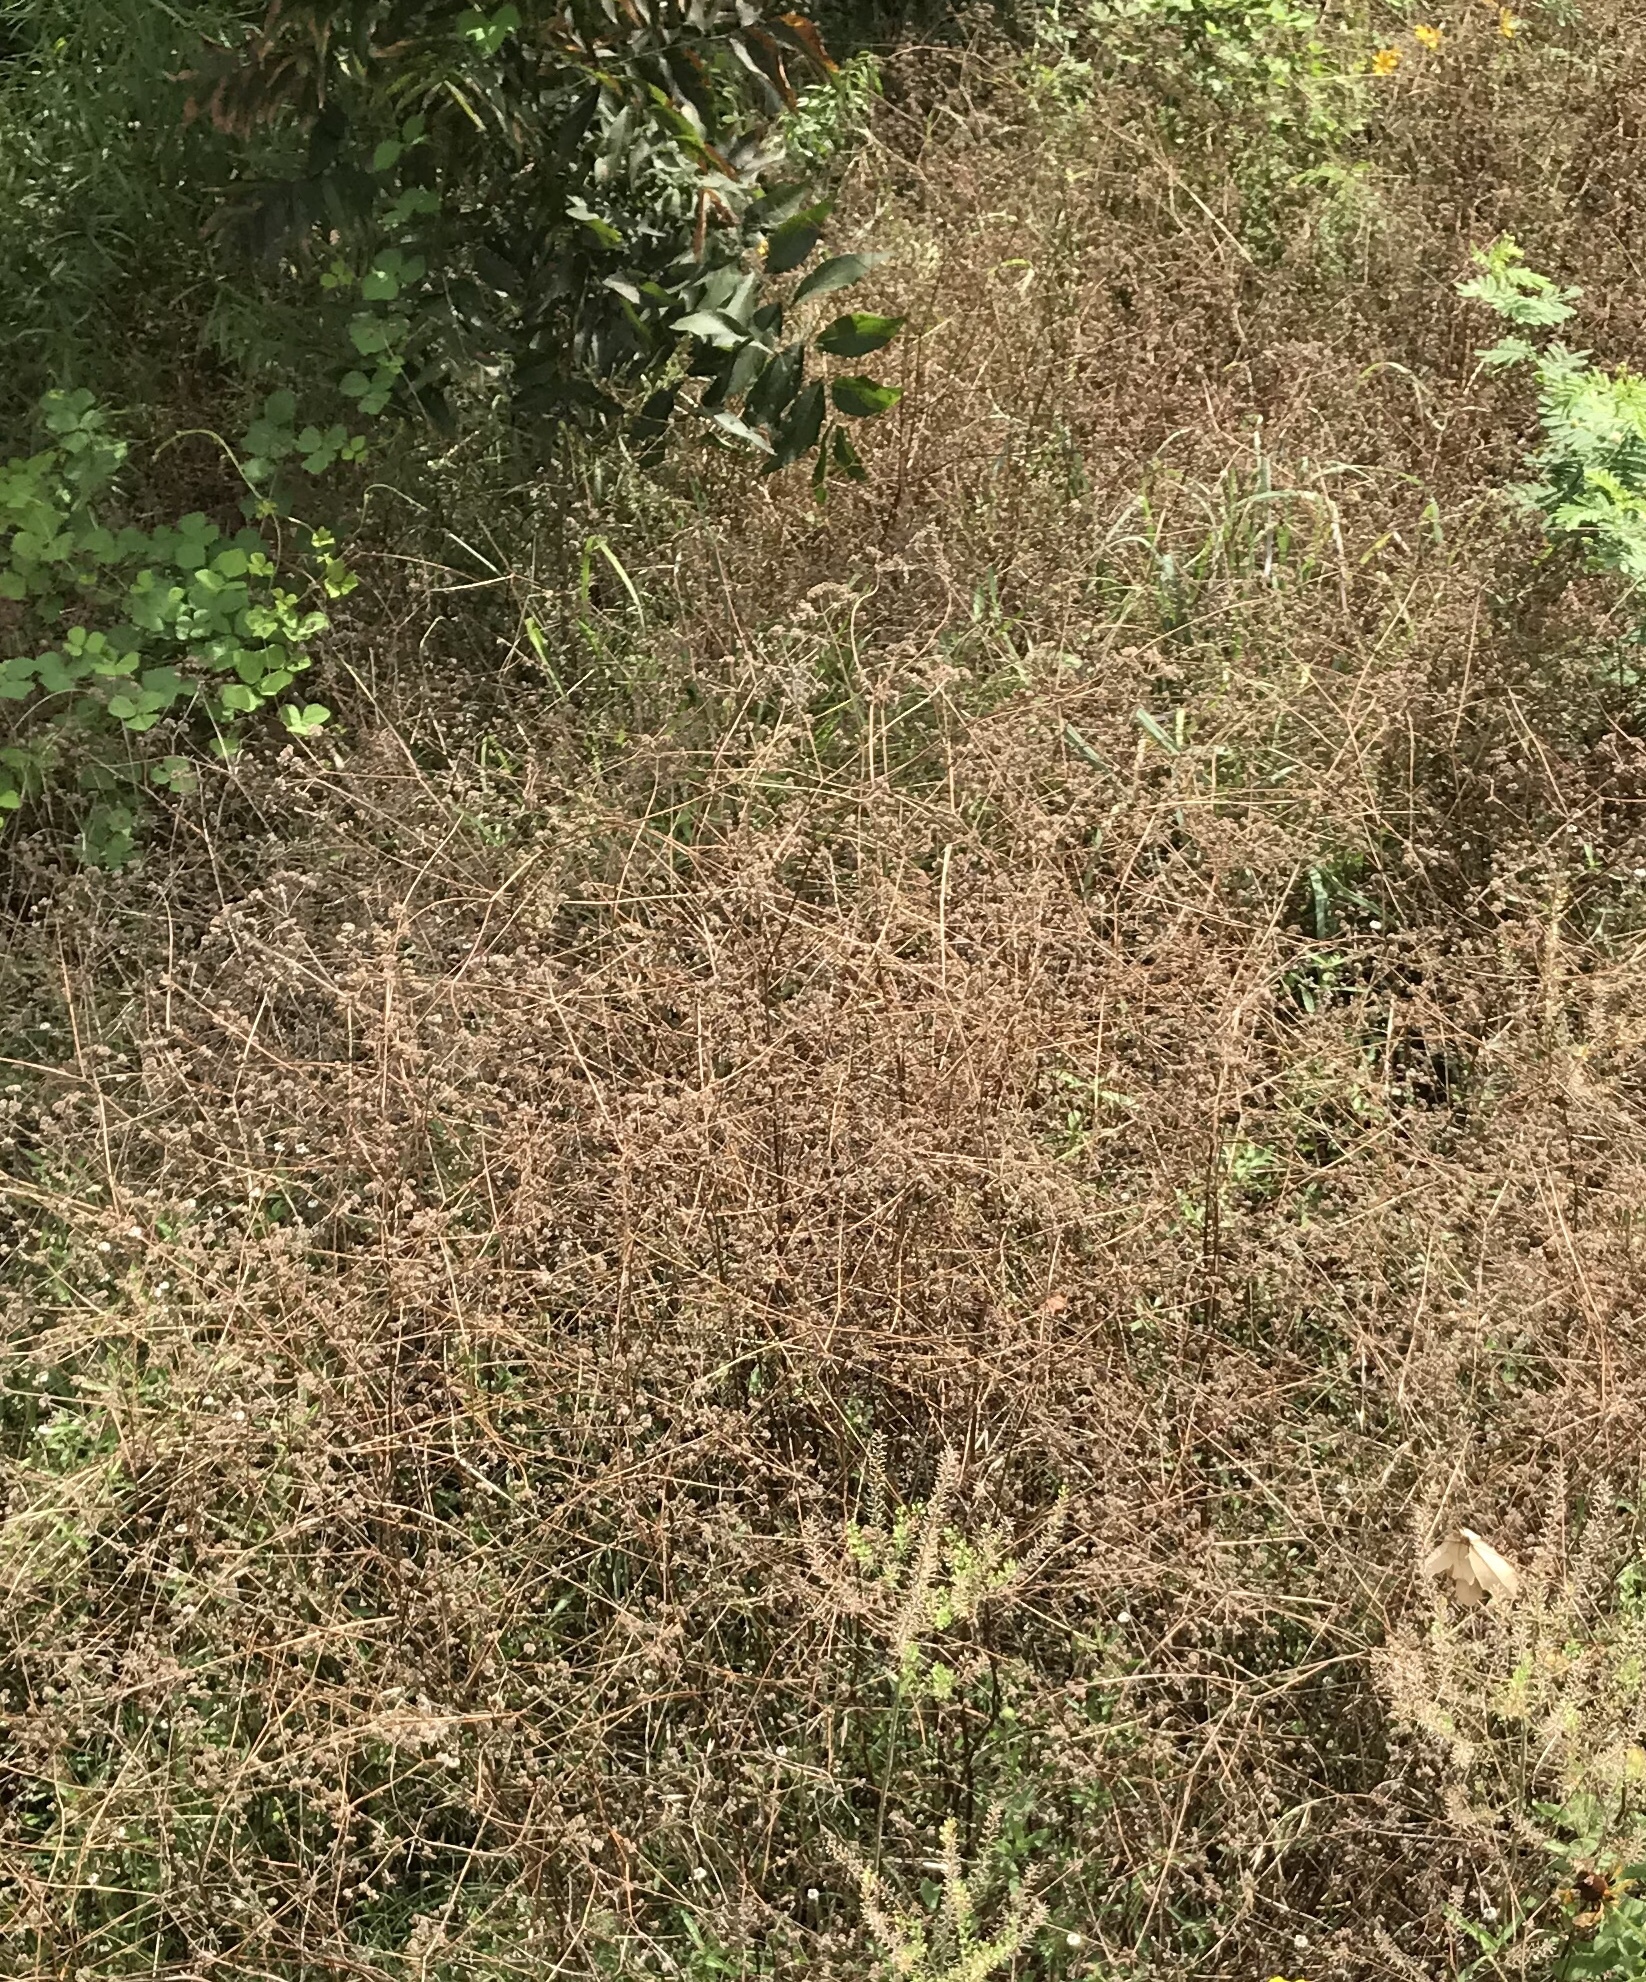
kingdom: Plantae
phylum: Tracheophyta
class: Magnoliopsida
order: Apiales
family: Apiaceae
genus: Torilis
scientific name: Torilis arvensis
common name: Spreading hedge-parsley
